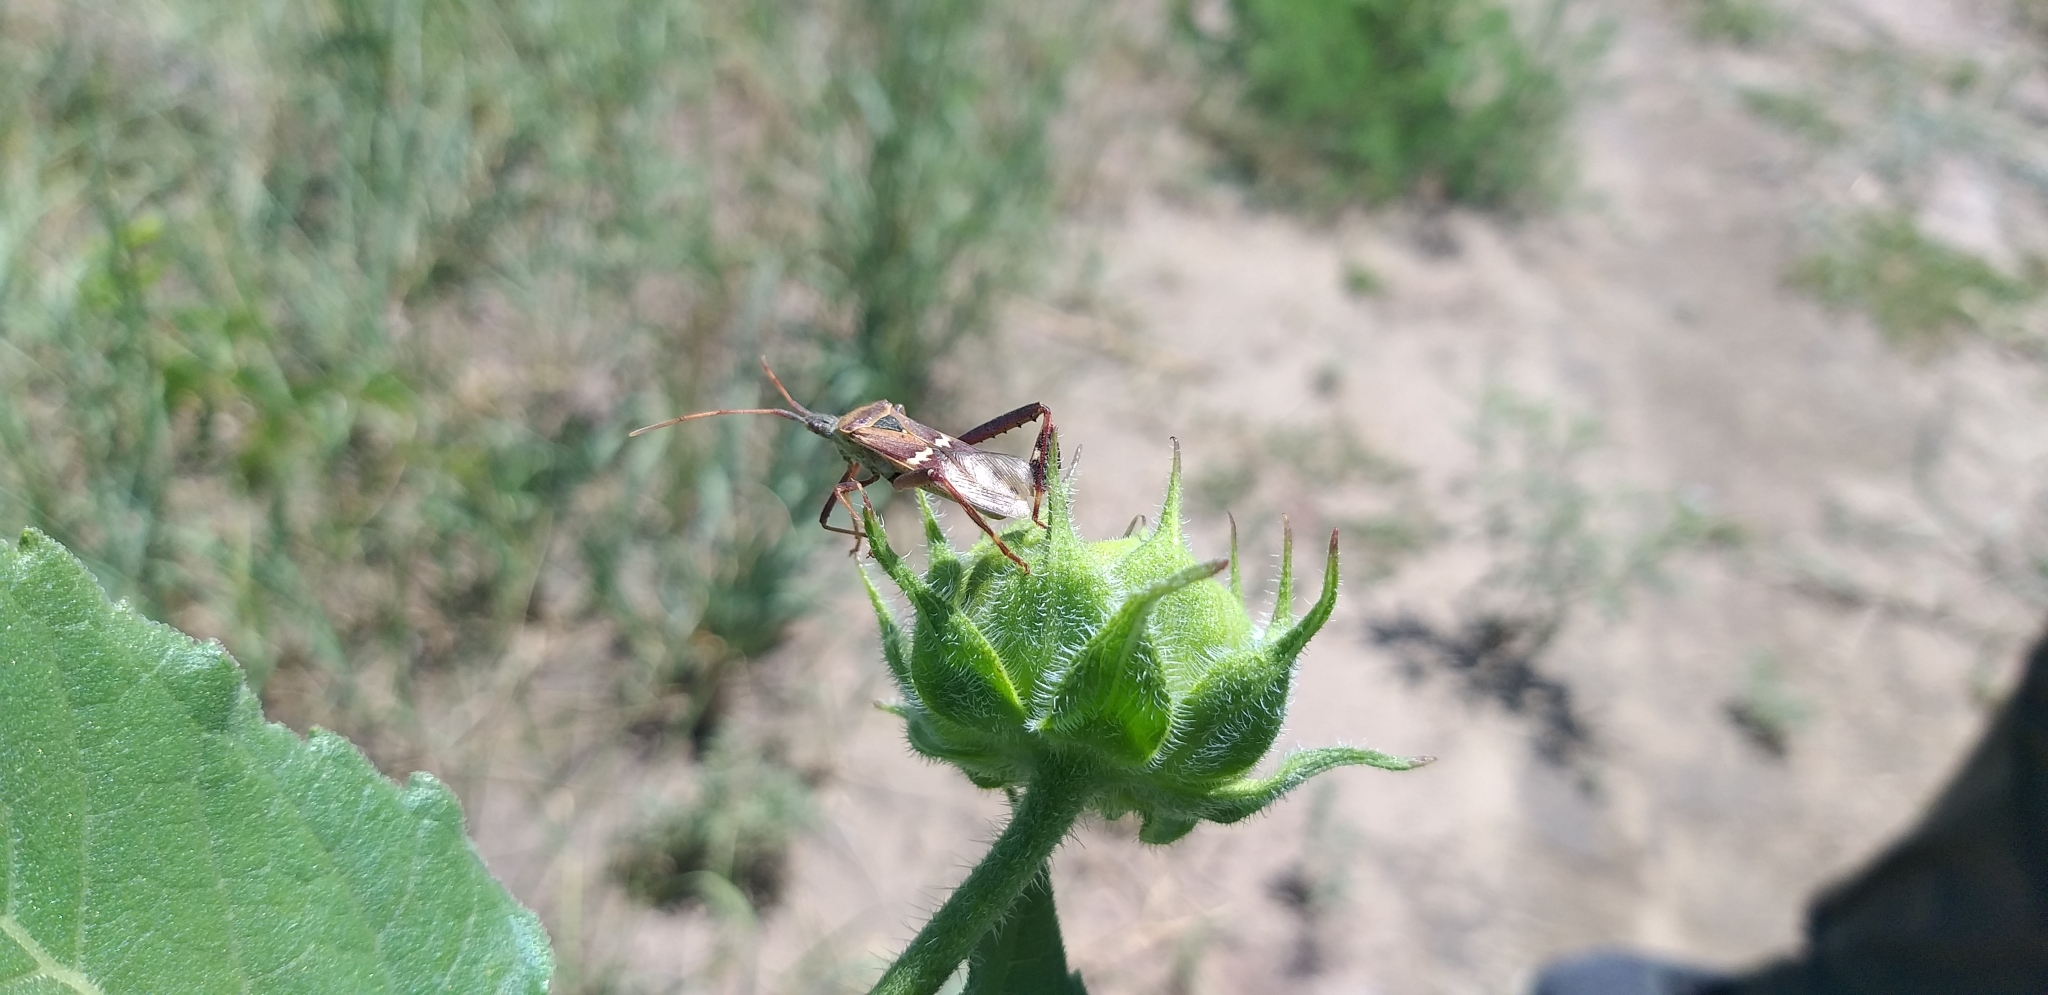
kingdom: Animalia
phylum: Arthropoda
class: Insecta
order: Hemiptera
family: Coreidae
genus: Leptoglossus
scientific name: Leptoglossus clypealis
